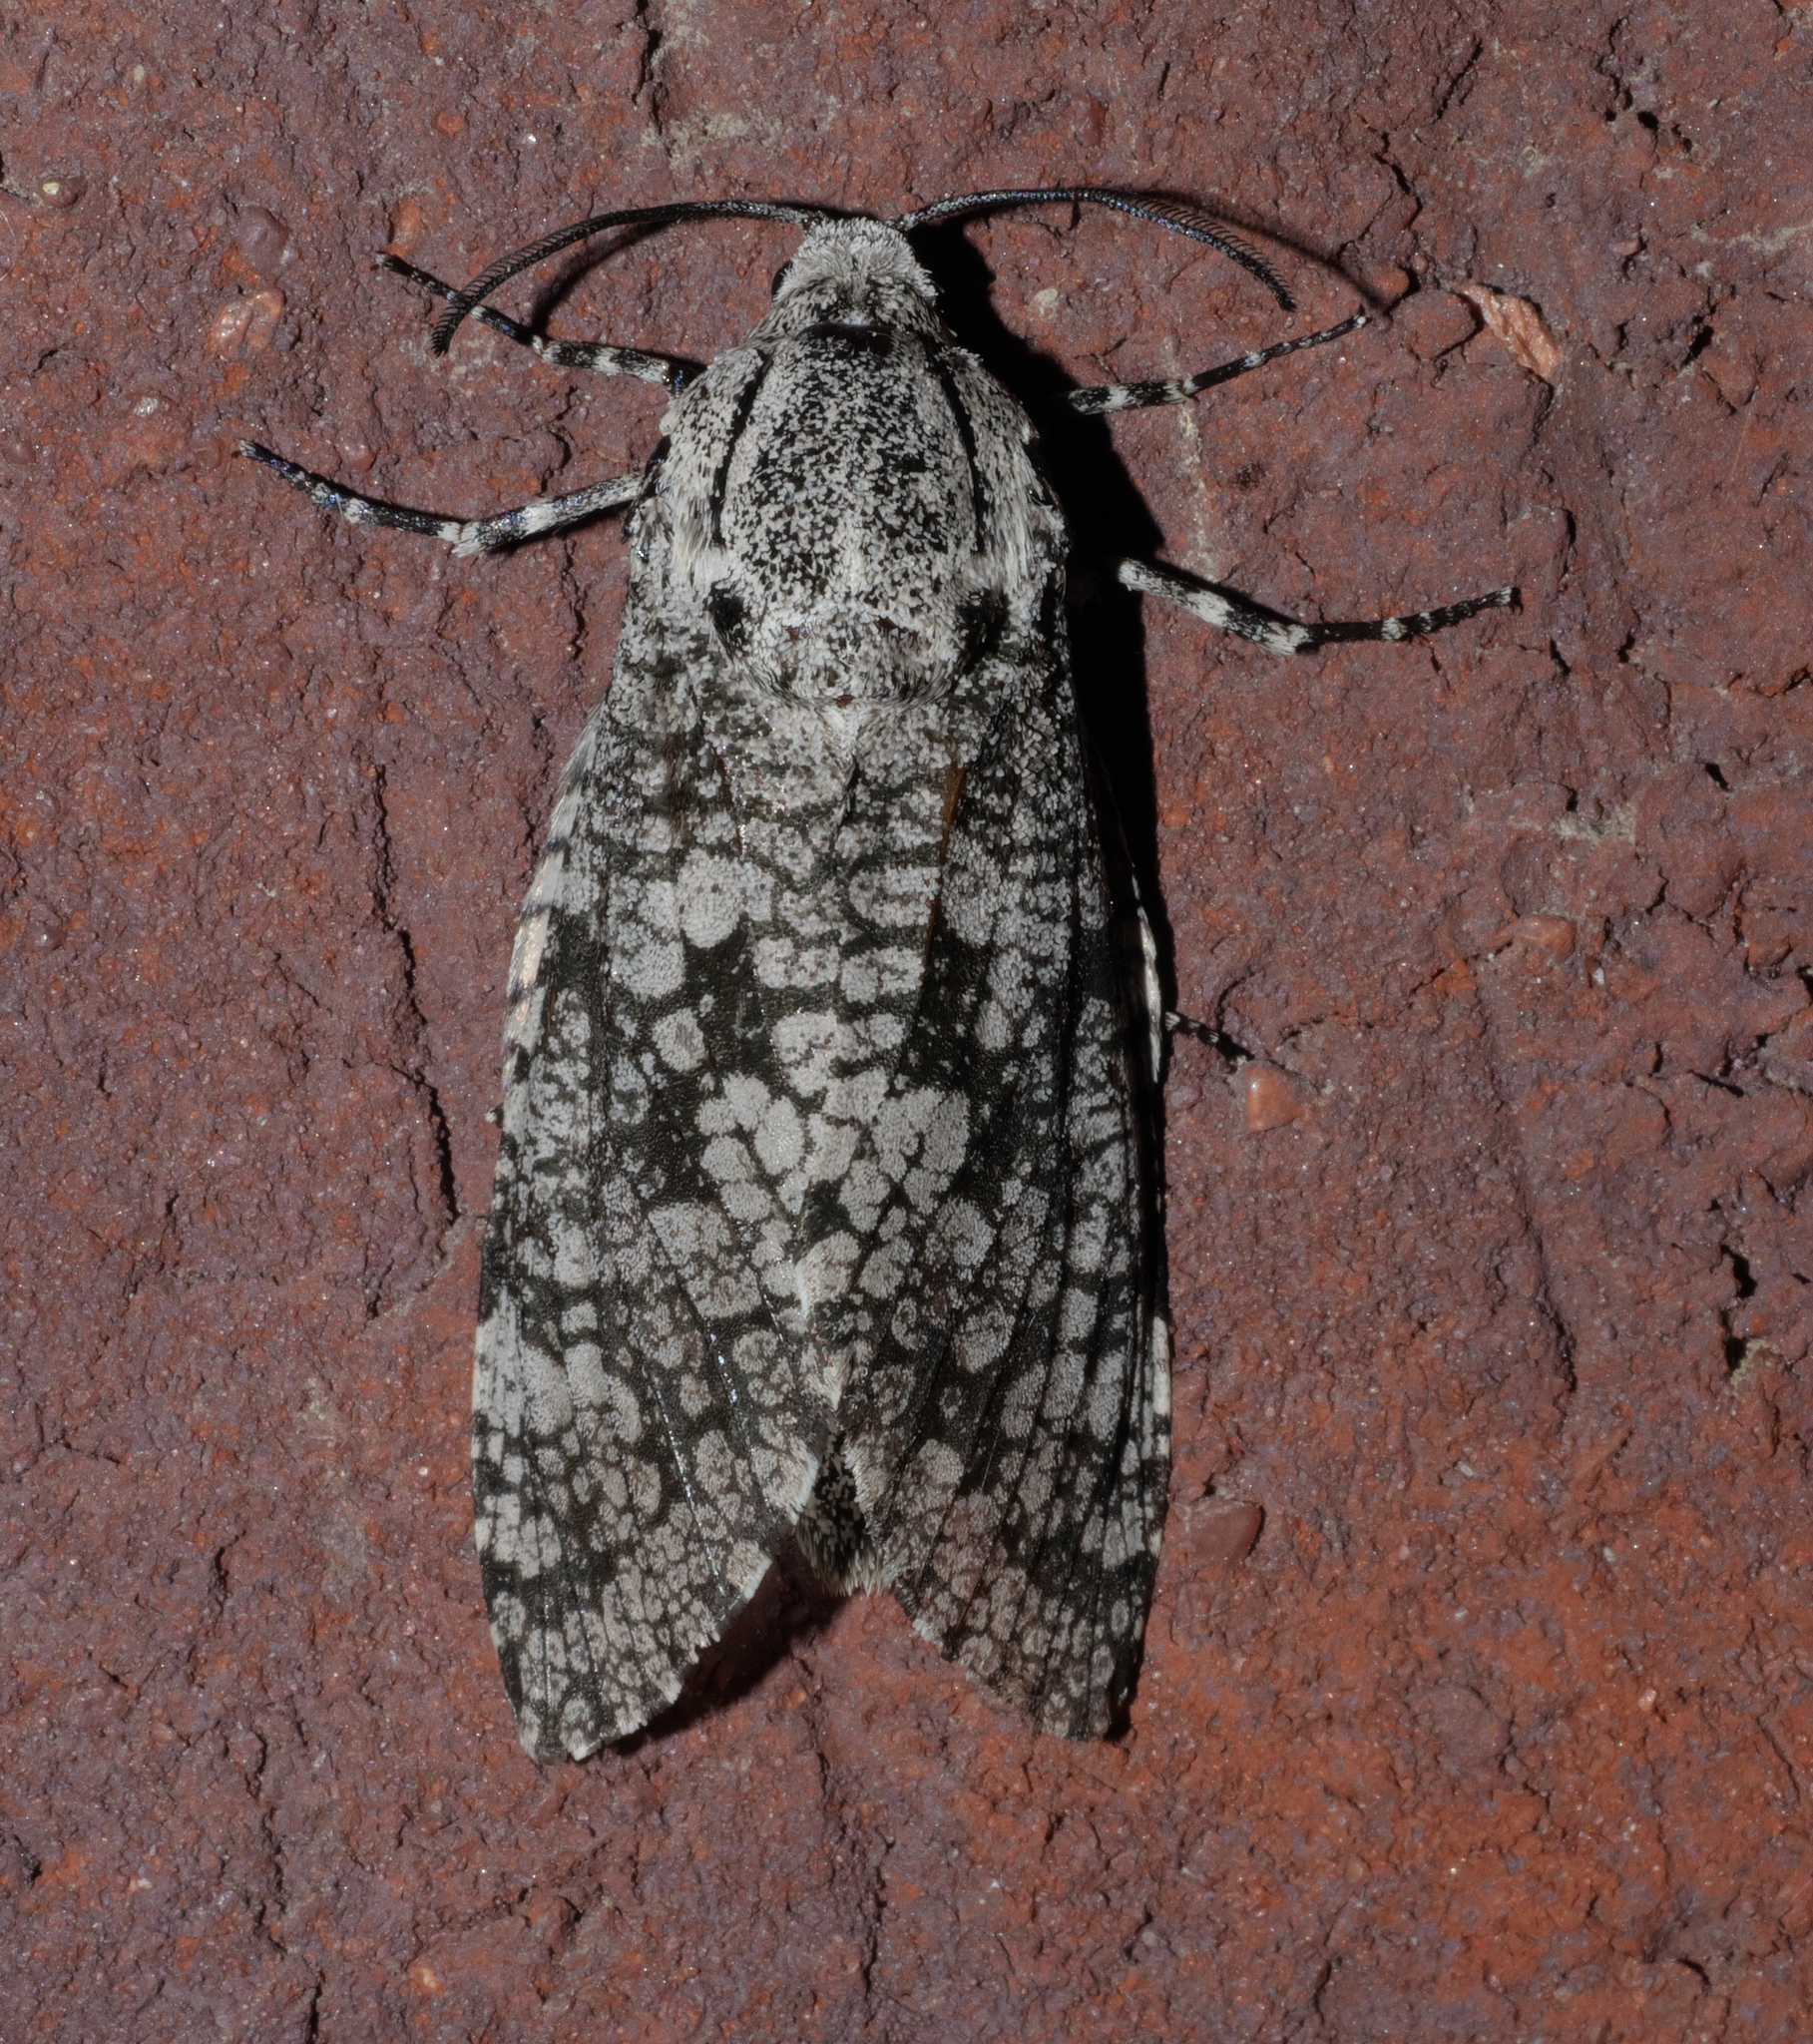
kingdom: Animalia
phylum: Arthropoda
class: Insecta
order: Lepidoptera
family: Cossidae
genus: Prionoxystus
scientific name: Prionoxystus robiniae
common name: Carpenterworm
